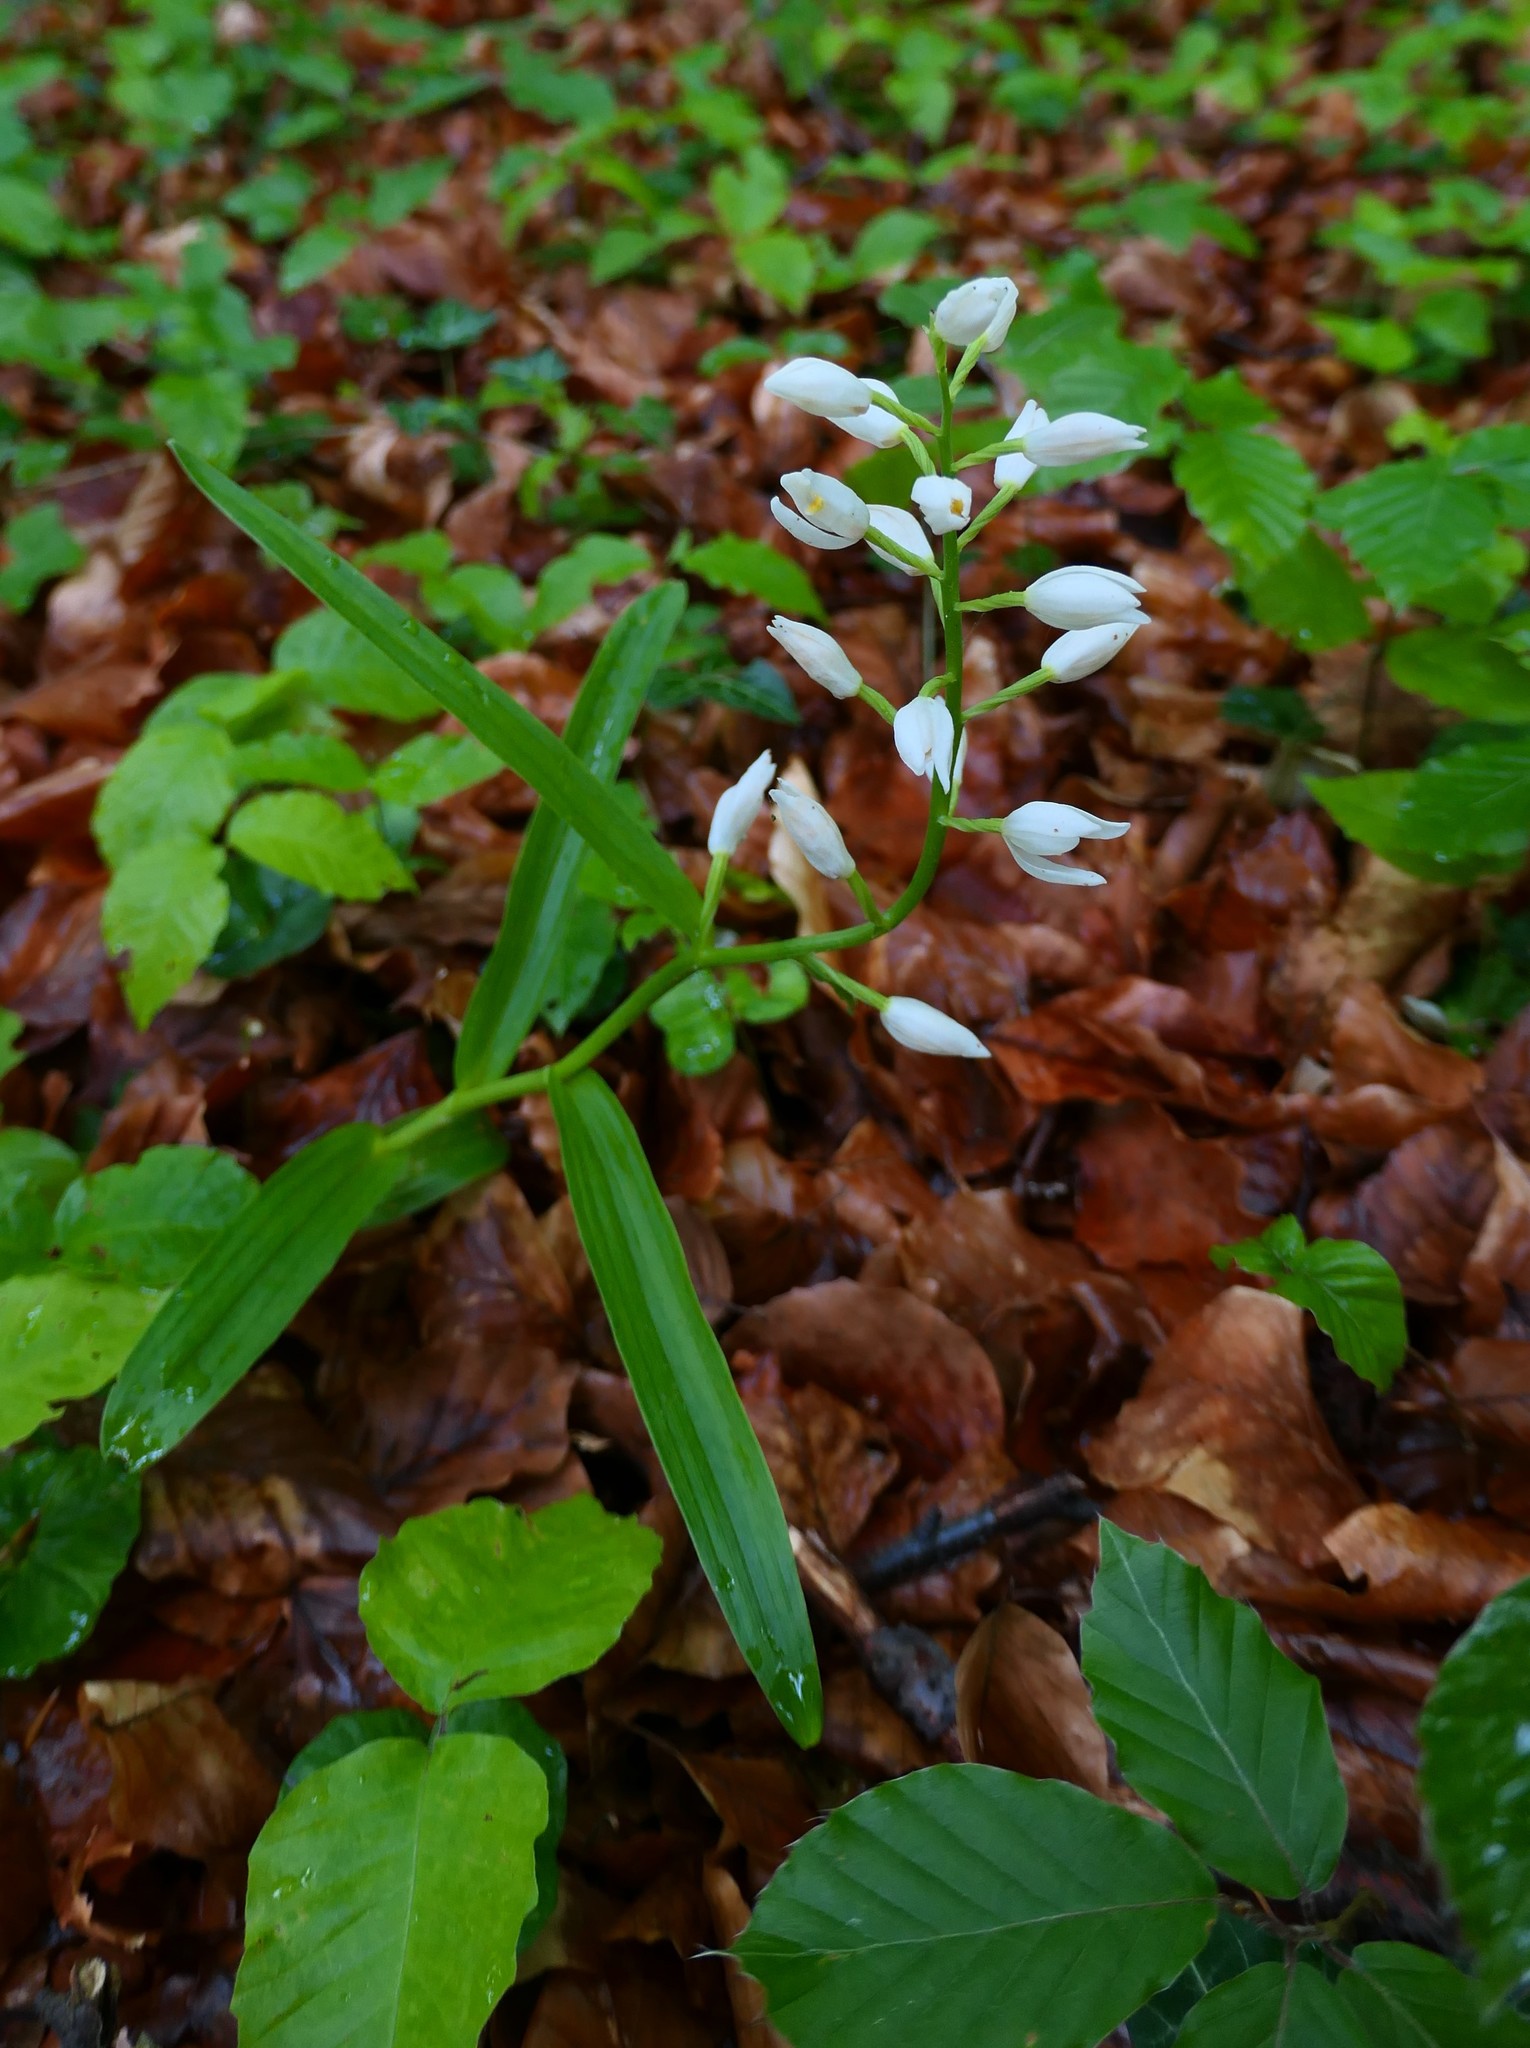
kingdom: Plantae
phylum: Tracheophyta
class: Liliopsida
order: Asparagales
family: Orchidaceae
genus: Cephalanthera
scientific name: Cephalanthera longifolia
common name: Narrow-leaved helleborine
